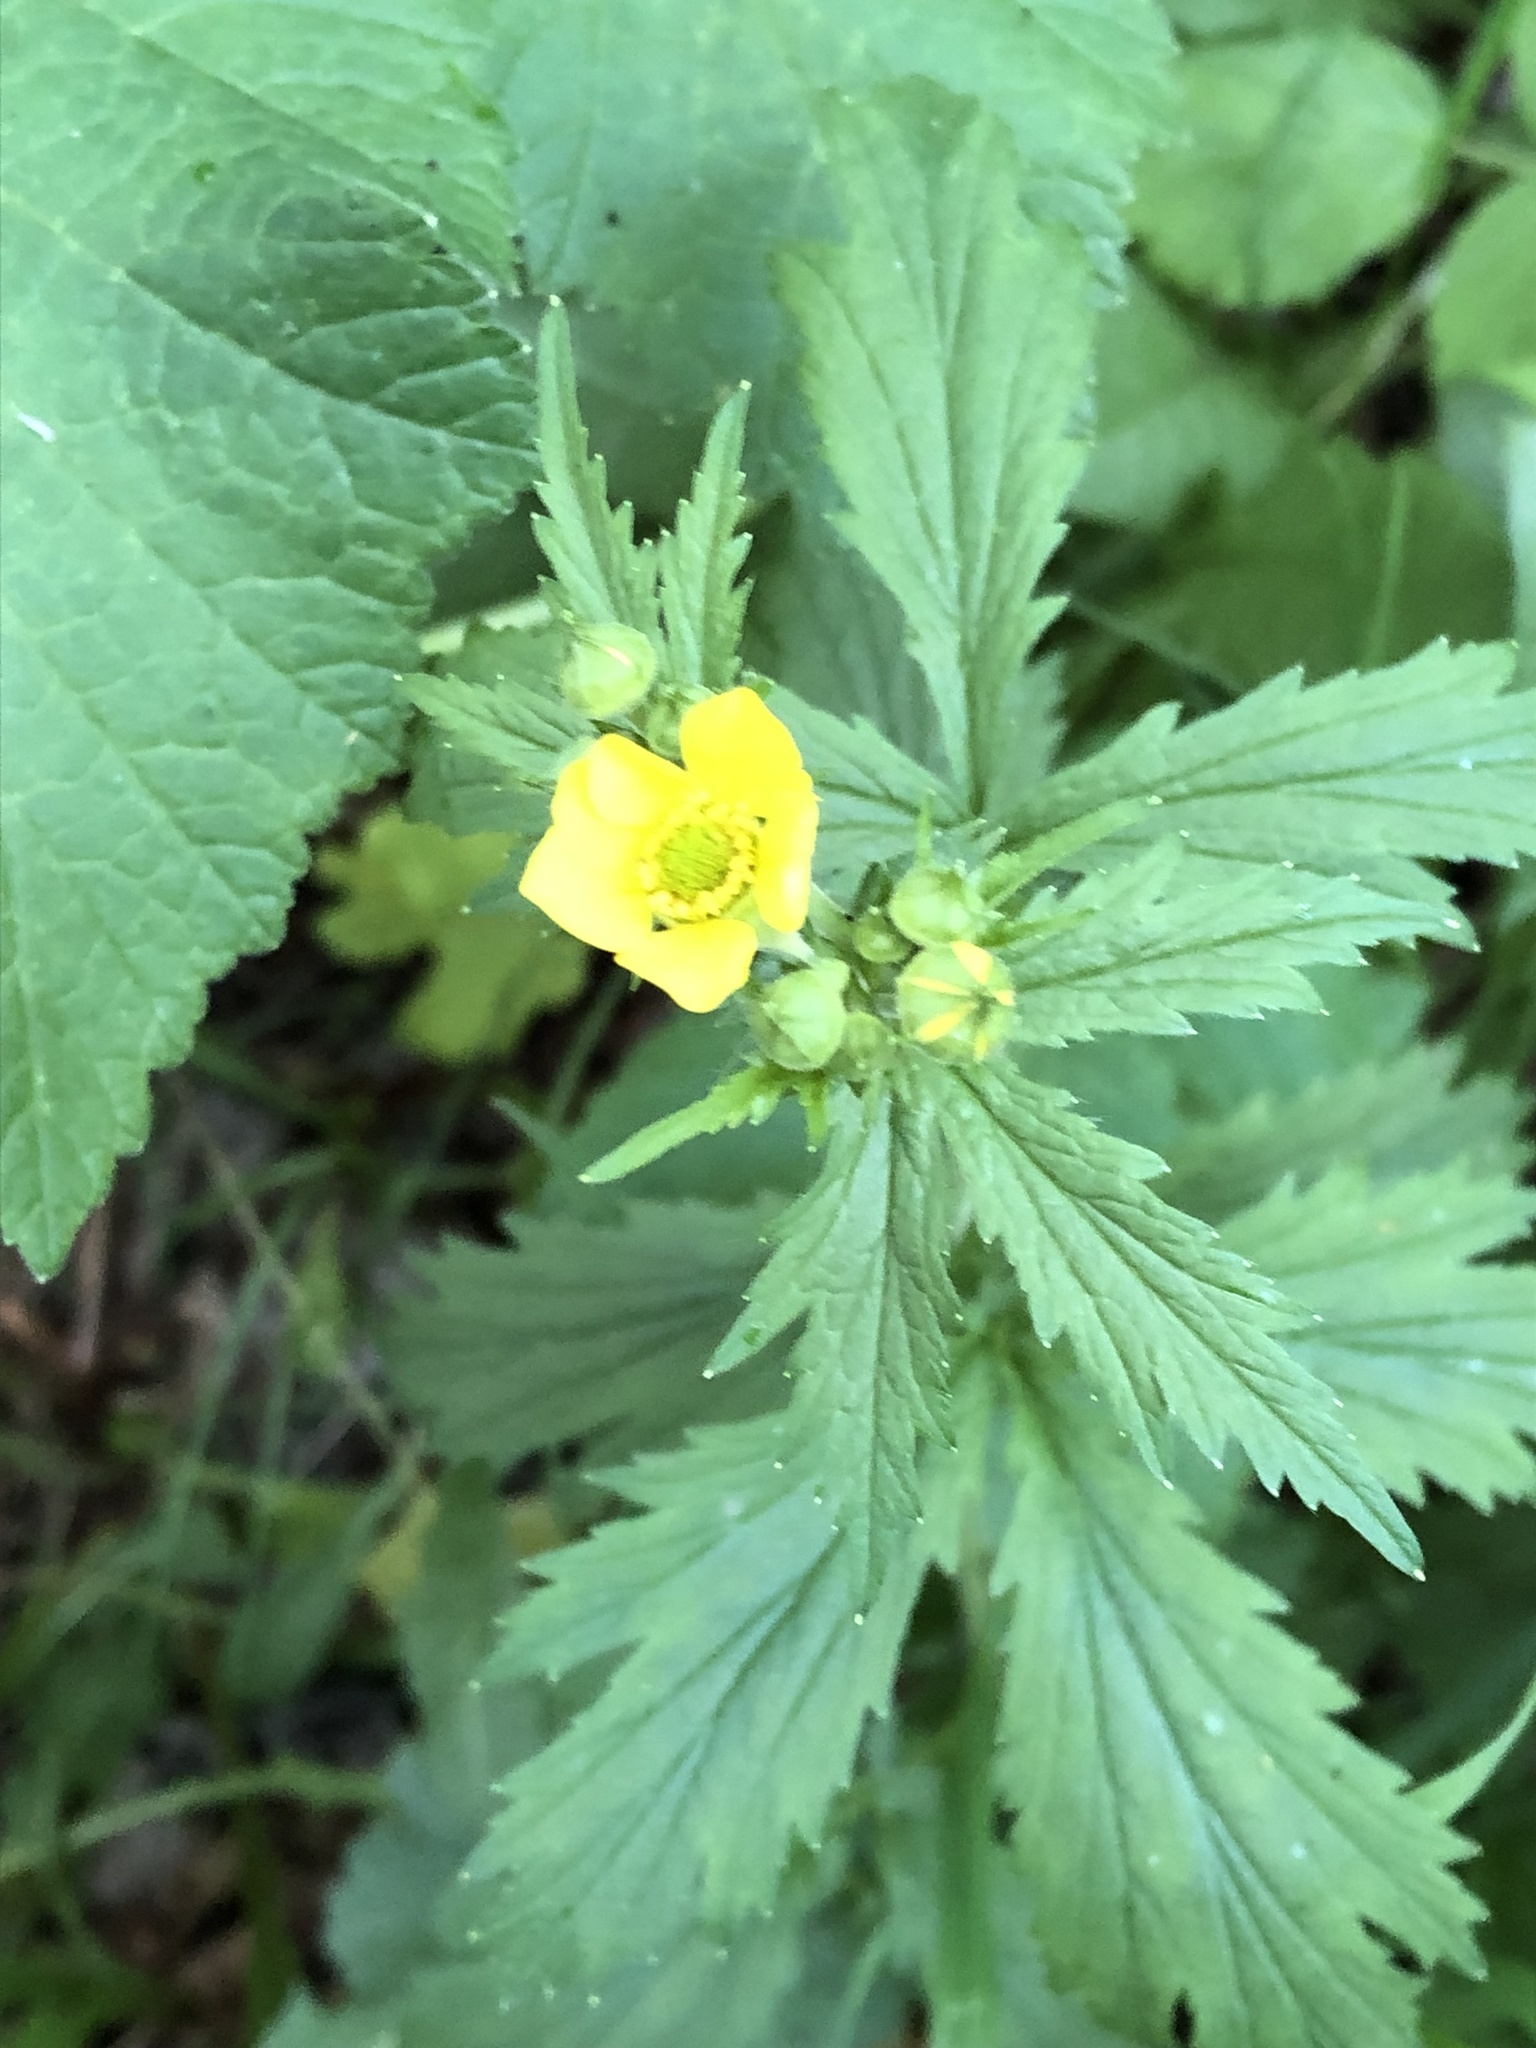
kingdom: Plantae
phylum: Tracheophyta
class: Magnoliopsida
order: Rosales
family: Rosaceae
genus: Geum
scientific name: Geum macrophyllum
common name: Large-leaved avens
